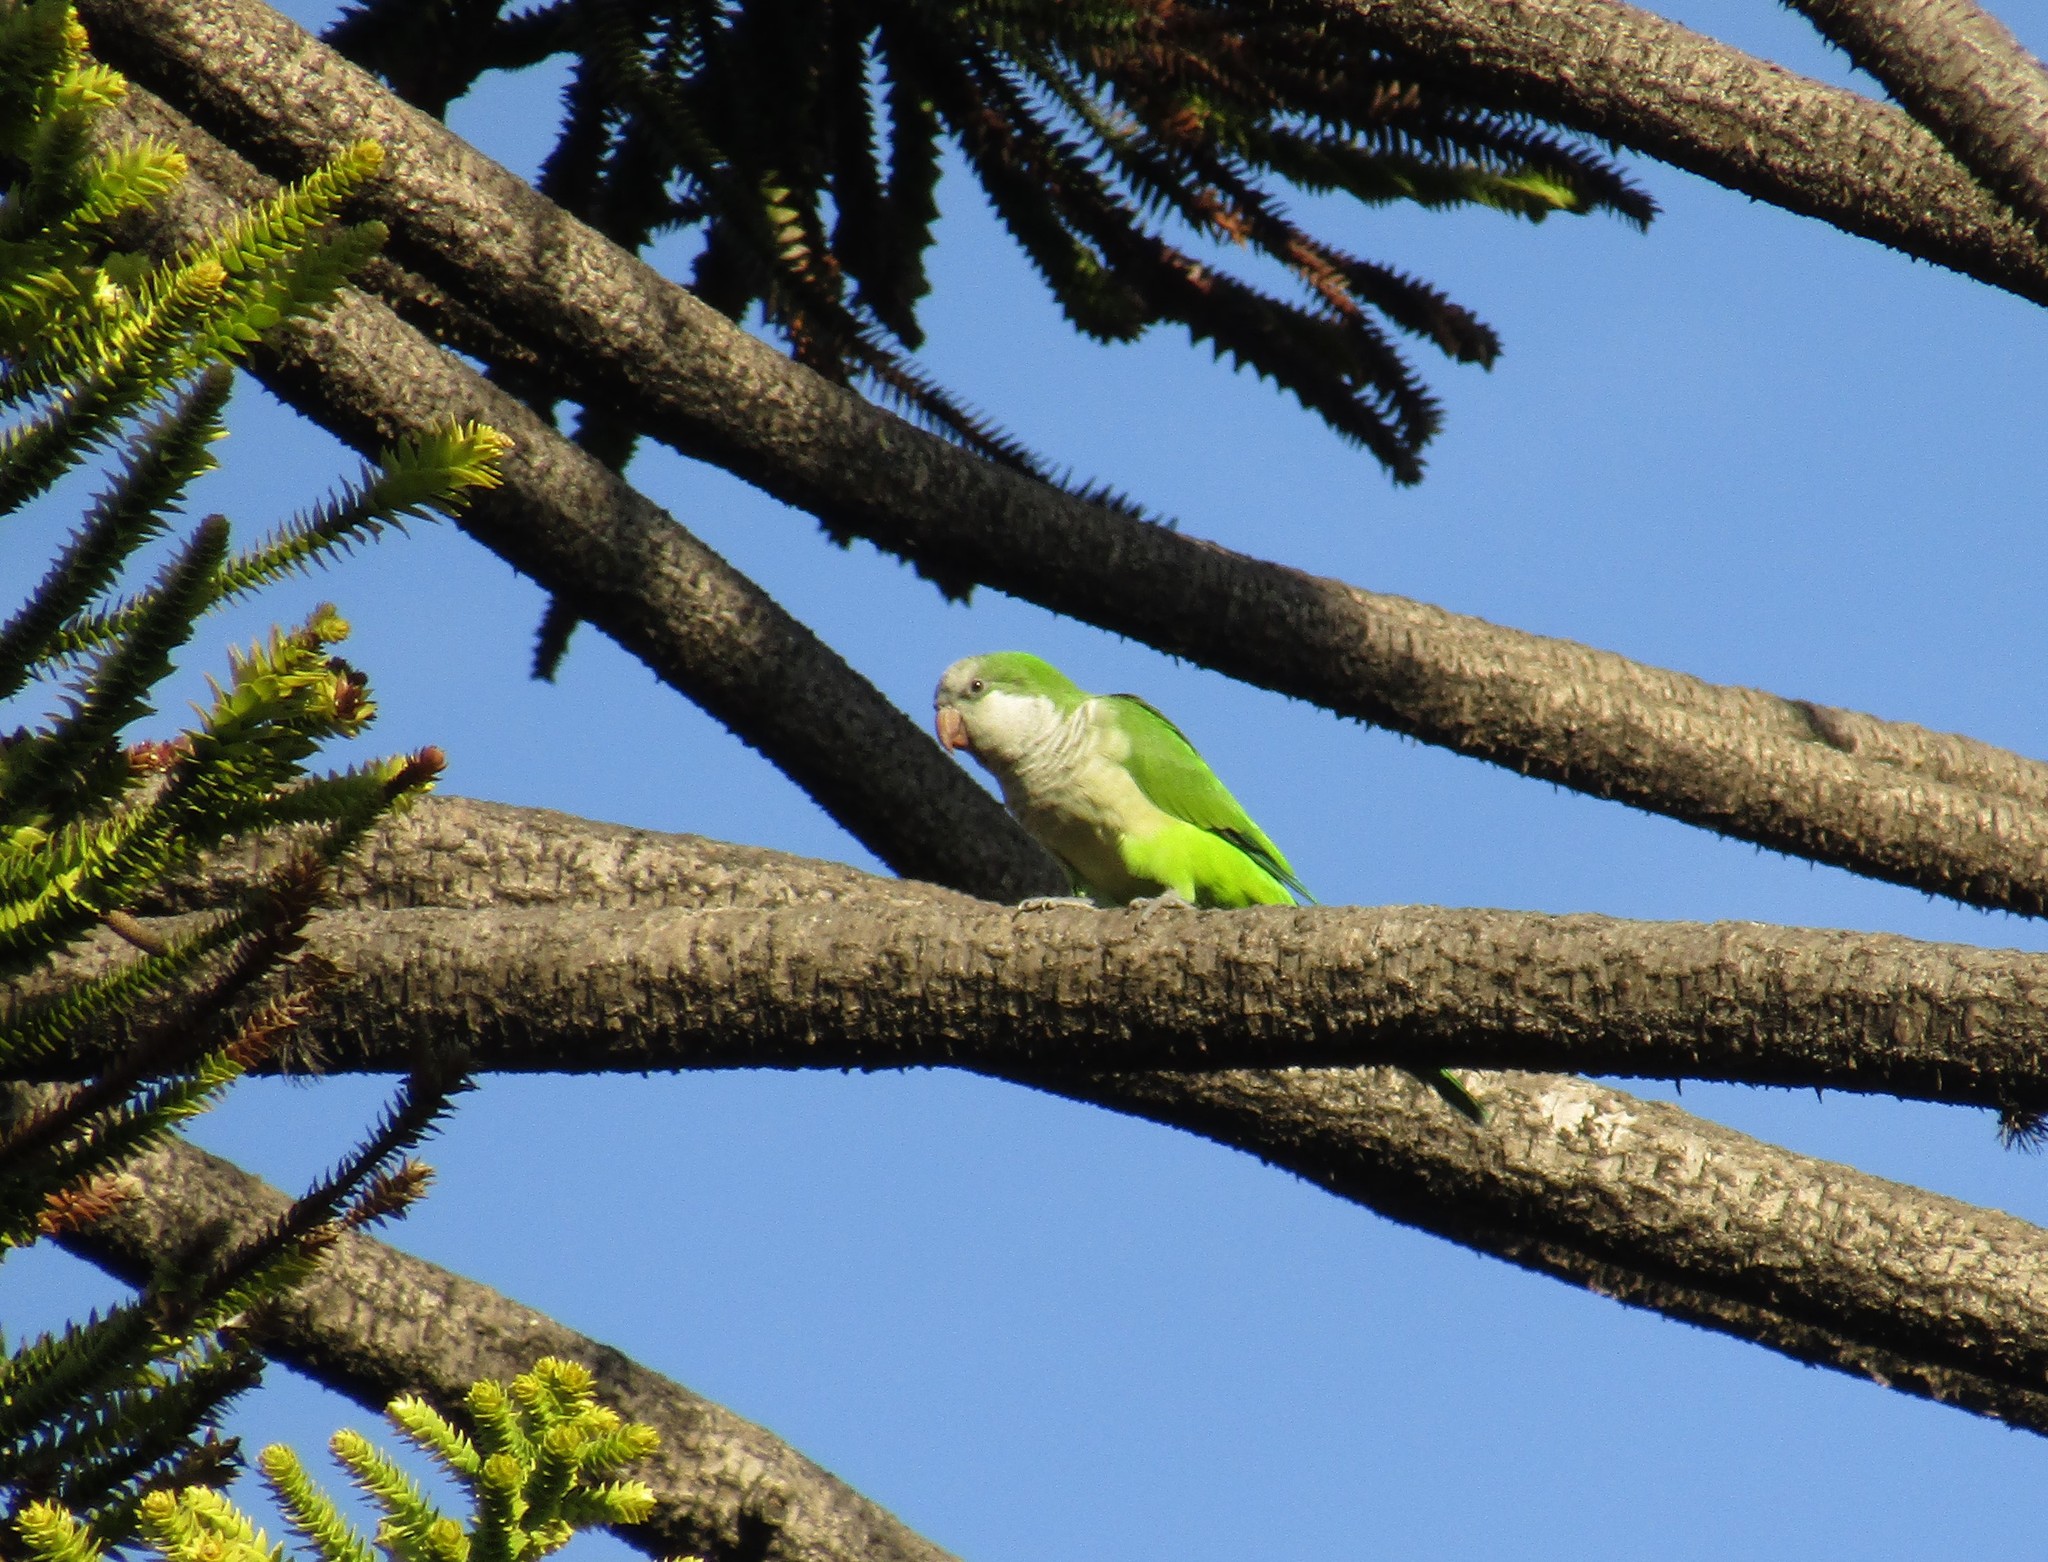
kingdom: Animalia
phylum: Chordata
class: Aves
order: Psittaciformes
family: Psittacidae
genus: Myiopsitta
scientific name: Myiopsitta monachus
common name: Monk parakeet
